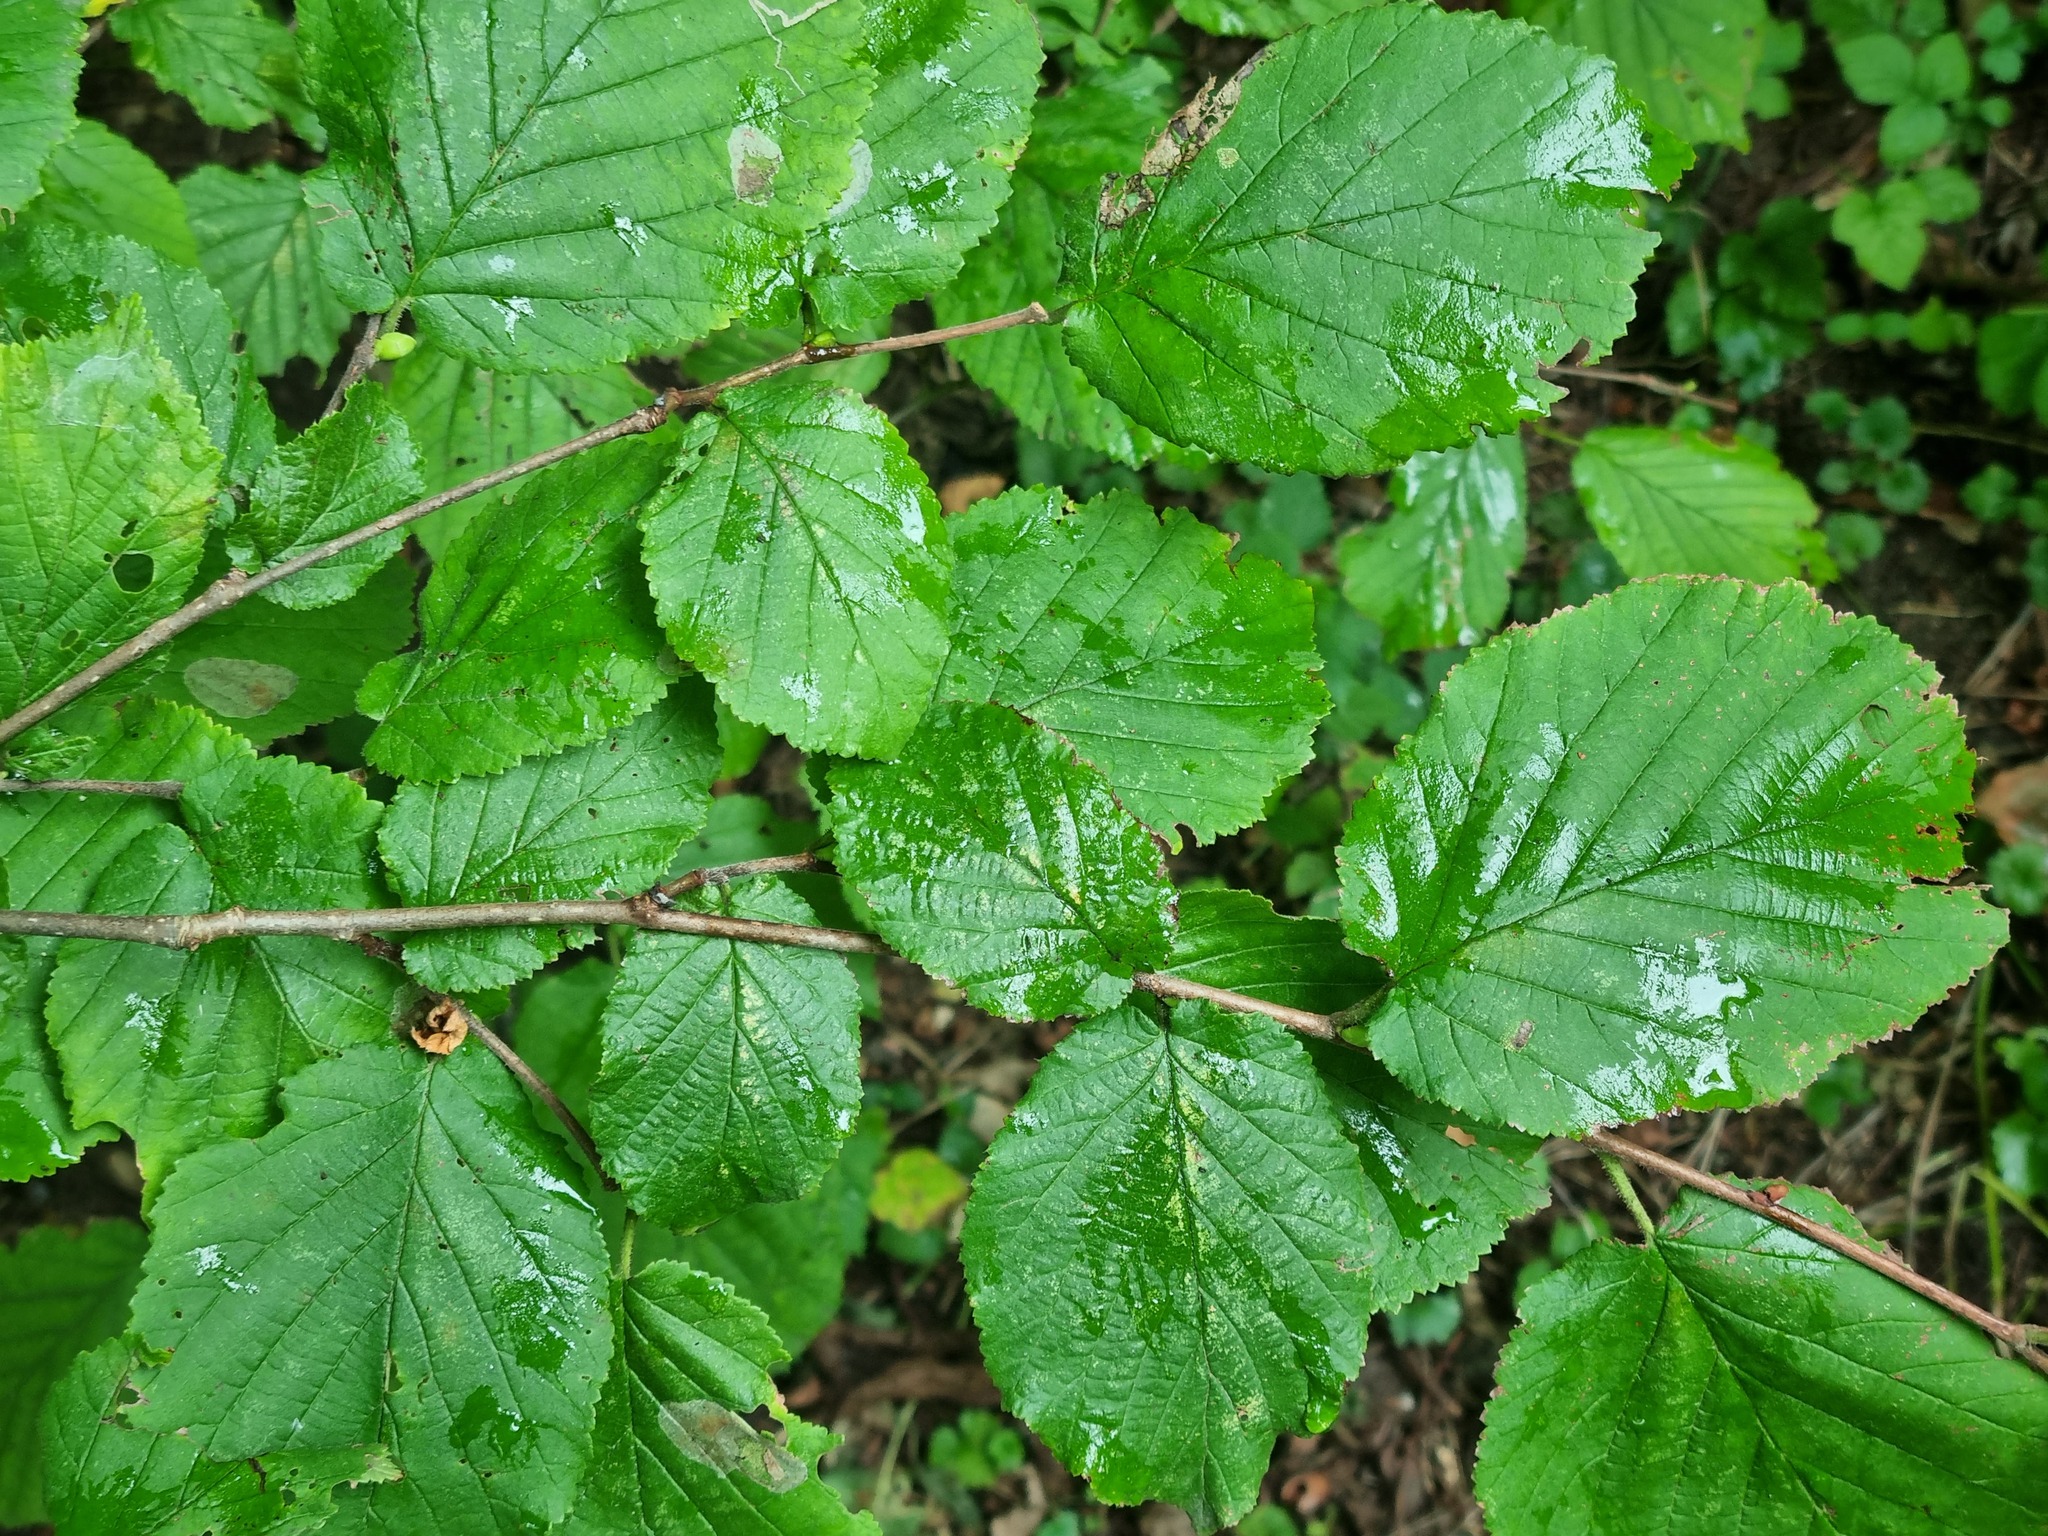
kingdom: Plantae
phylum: Tracheophyta
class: Magnoliopsida
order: Fagales
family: Betulaceae
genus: Corylus
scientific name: Corylus avellana
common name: European hazel
